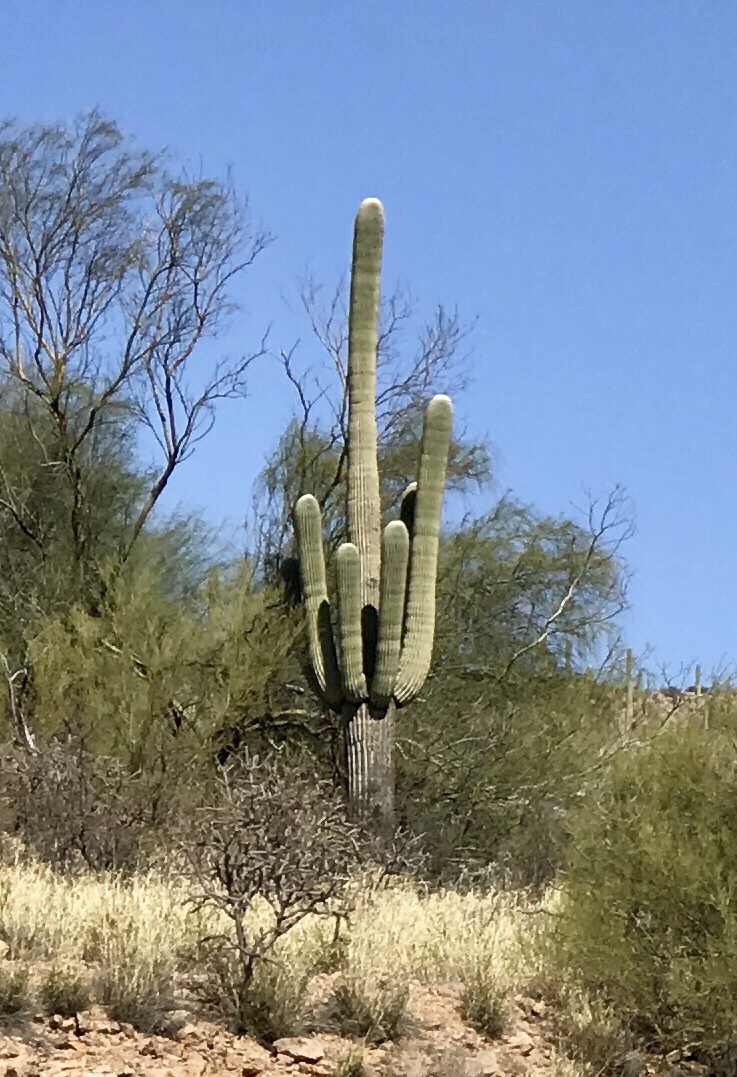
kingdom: Plantae
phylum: Tracheophyta
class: Magnoliopsida
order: Caryophyllales
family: Cactaceae
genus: Carnegiea
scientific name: Carnegiea gigantea
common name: Saguaro
